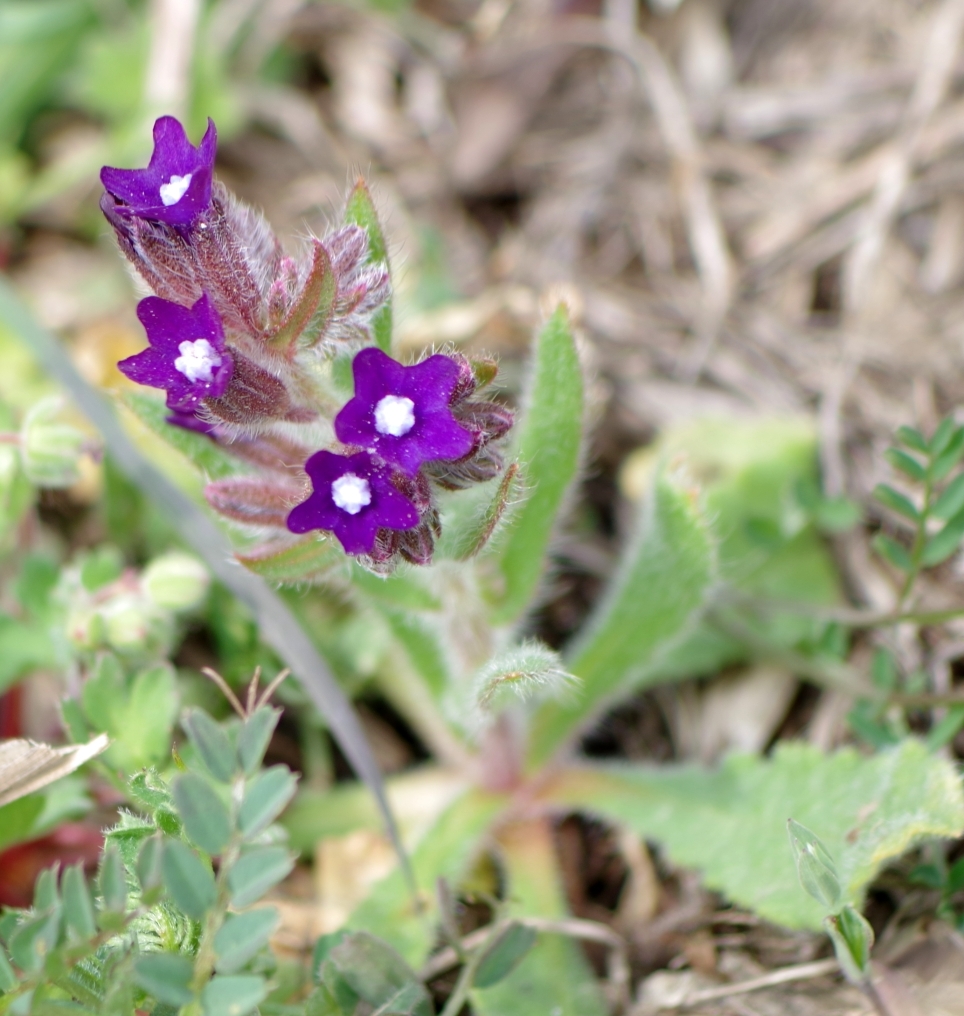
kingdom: Plantae
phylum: Tracheophyta
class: Magnoliopsida
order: Boraginales
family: Boraginaceae
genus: Anchusa
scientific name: Anchusa officinalis
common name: Alkanet
